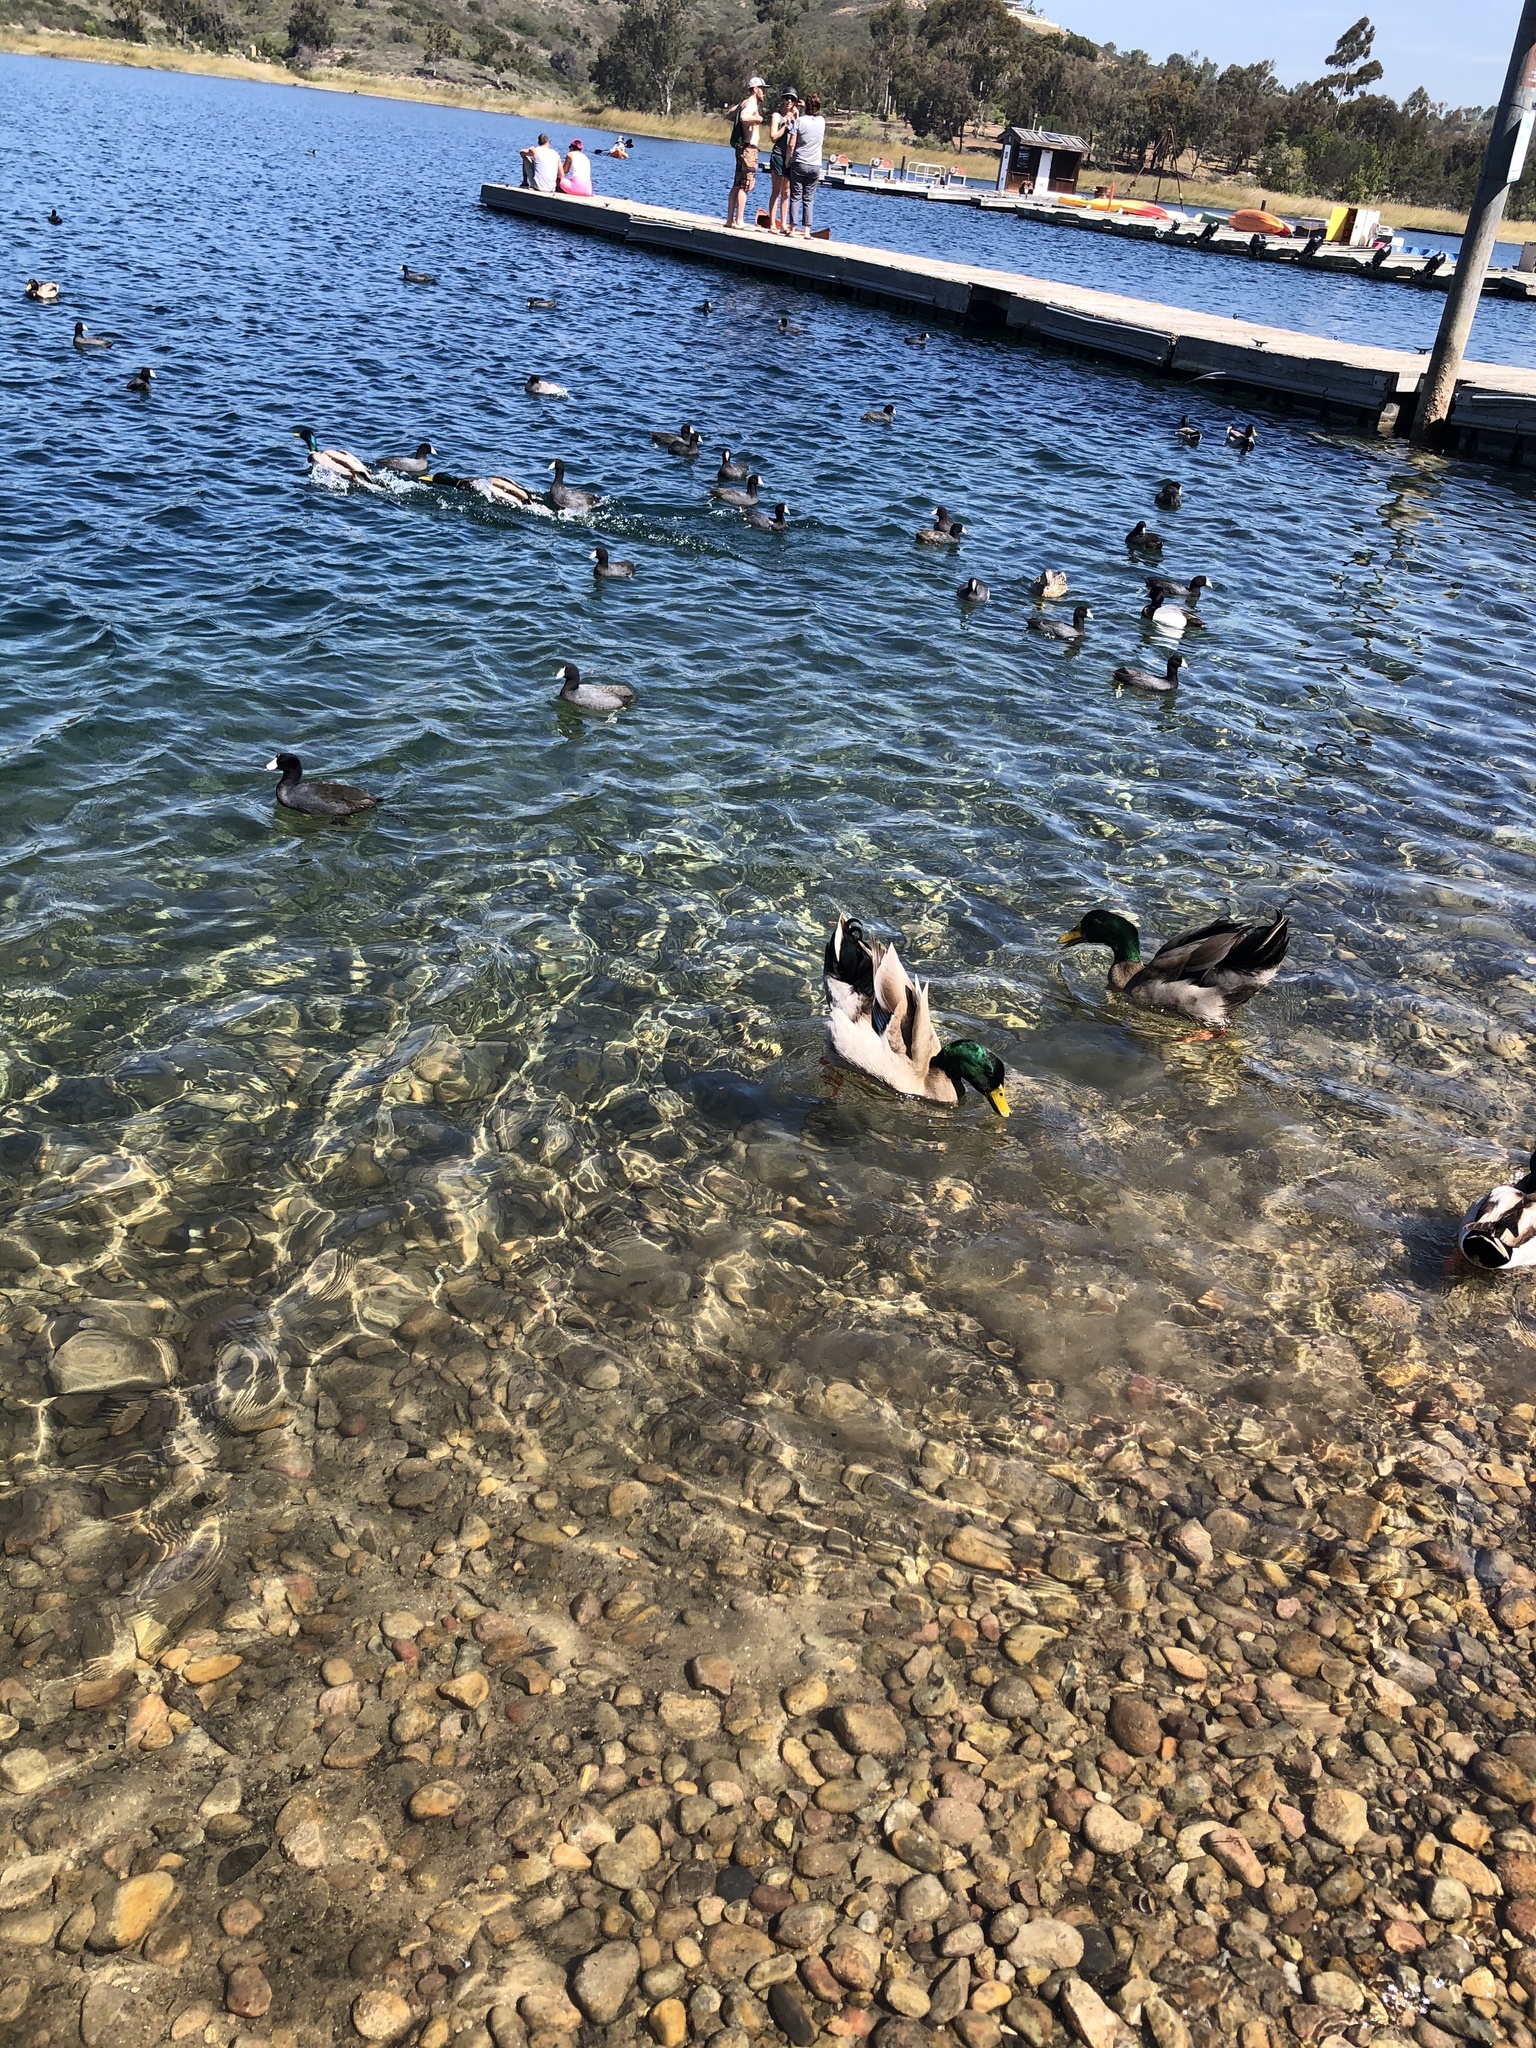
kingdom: Animalia
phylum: Chordata
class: Aves
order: Anseriformes
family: Anatidae
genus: Anas
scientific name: Anas platyrhynchos
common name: Mallard
